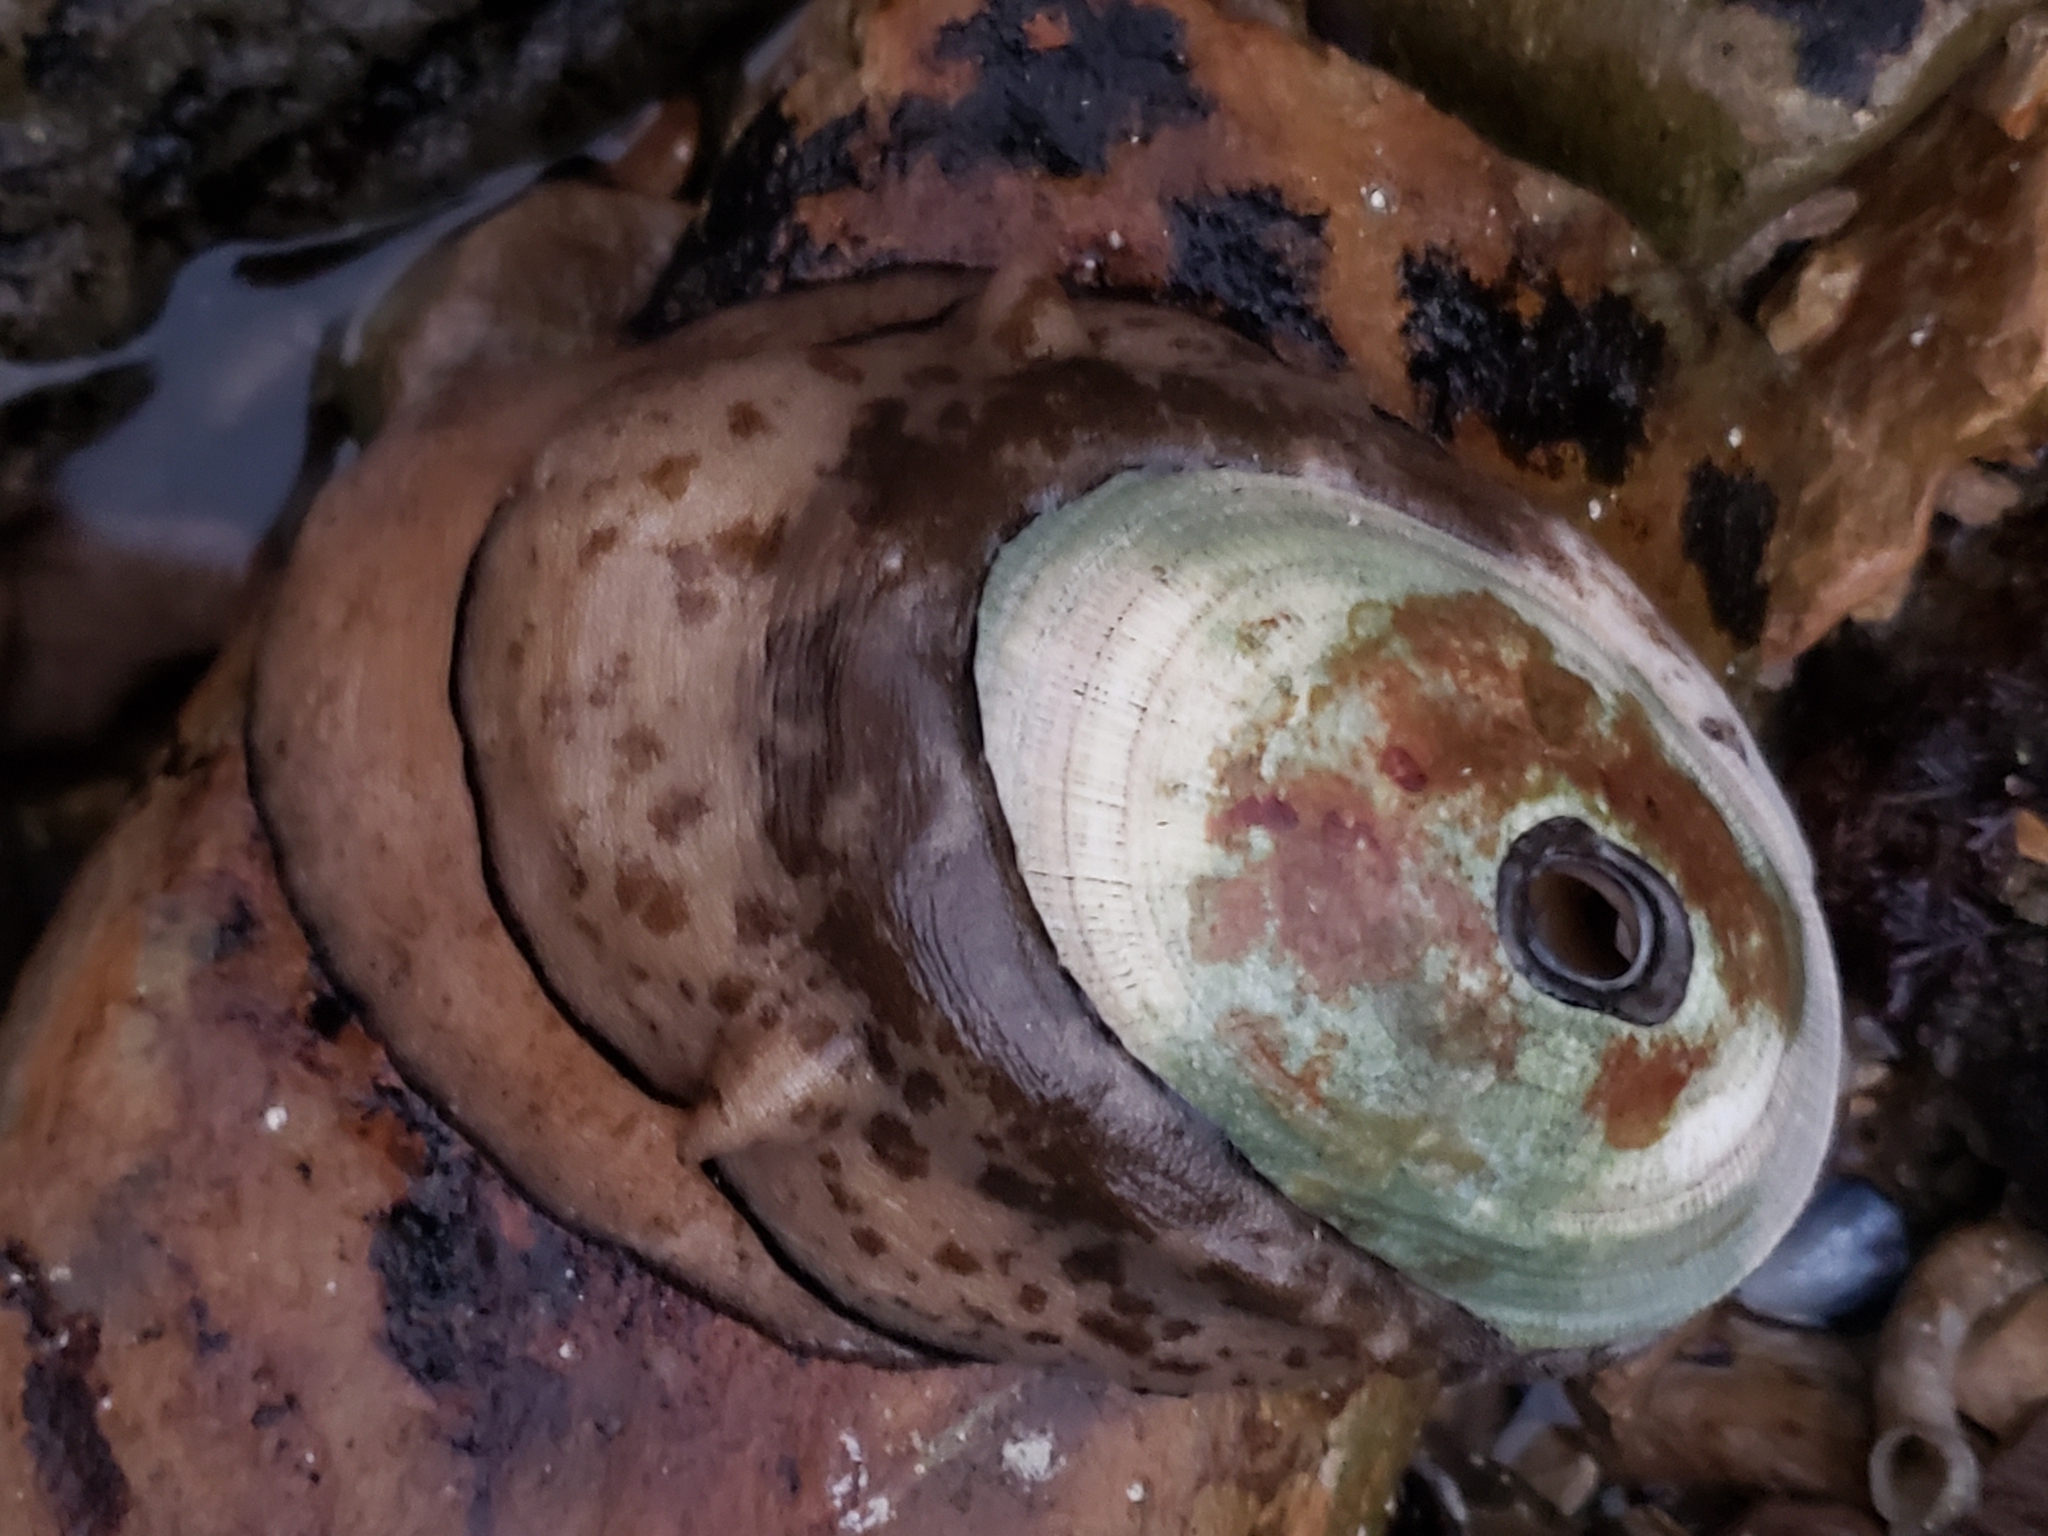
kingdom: Animalia
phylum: Mollusca
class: Gastropoda
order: Lepetellida
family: Fissurellidae
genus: Megathura
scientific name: Megathura crenulata
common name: Giant keyhole limpet
